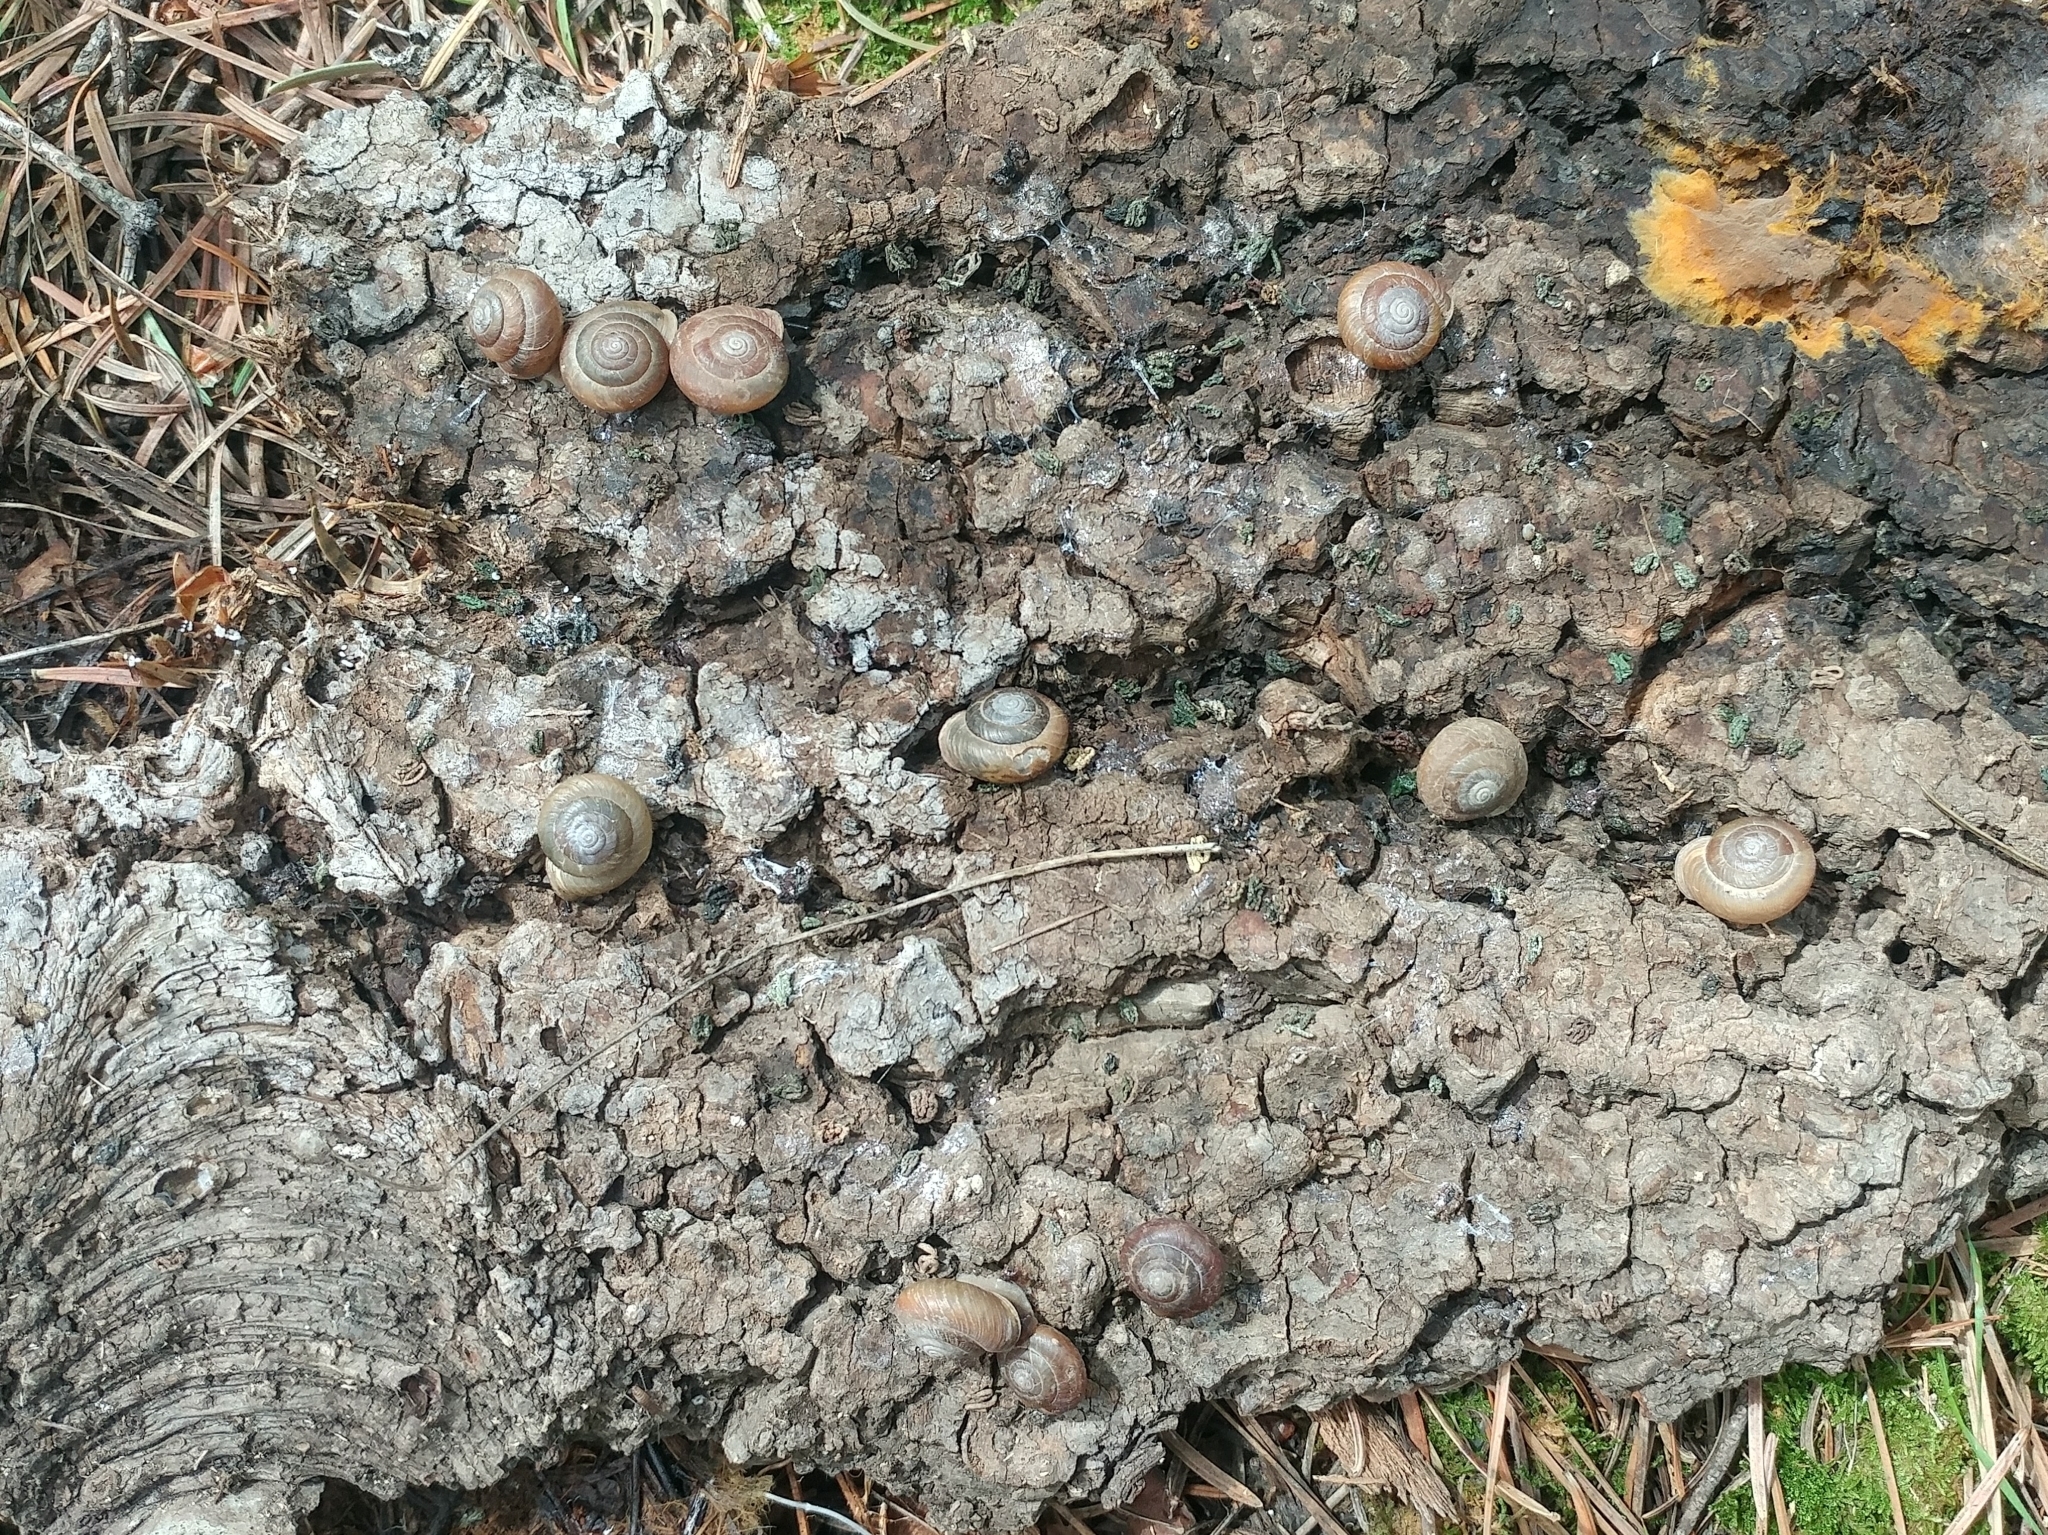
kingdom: Animalia
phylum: Mollusca
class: Gastropoda
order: Stylommatophora
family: Polygyridae
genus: Ashmunella
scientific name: Ashmunella rhyssa
